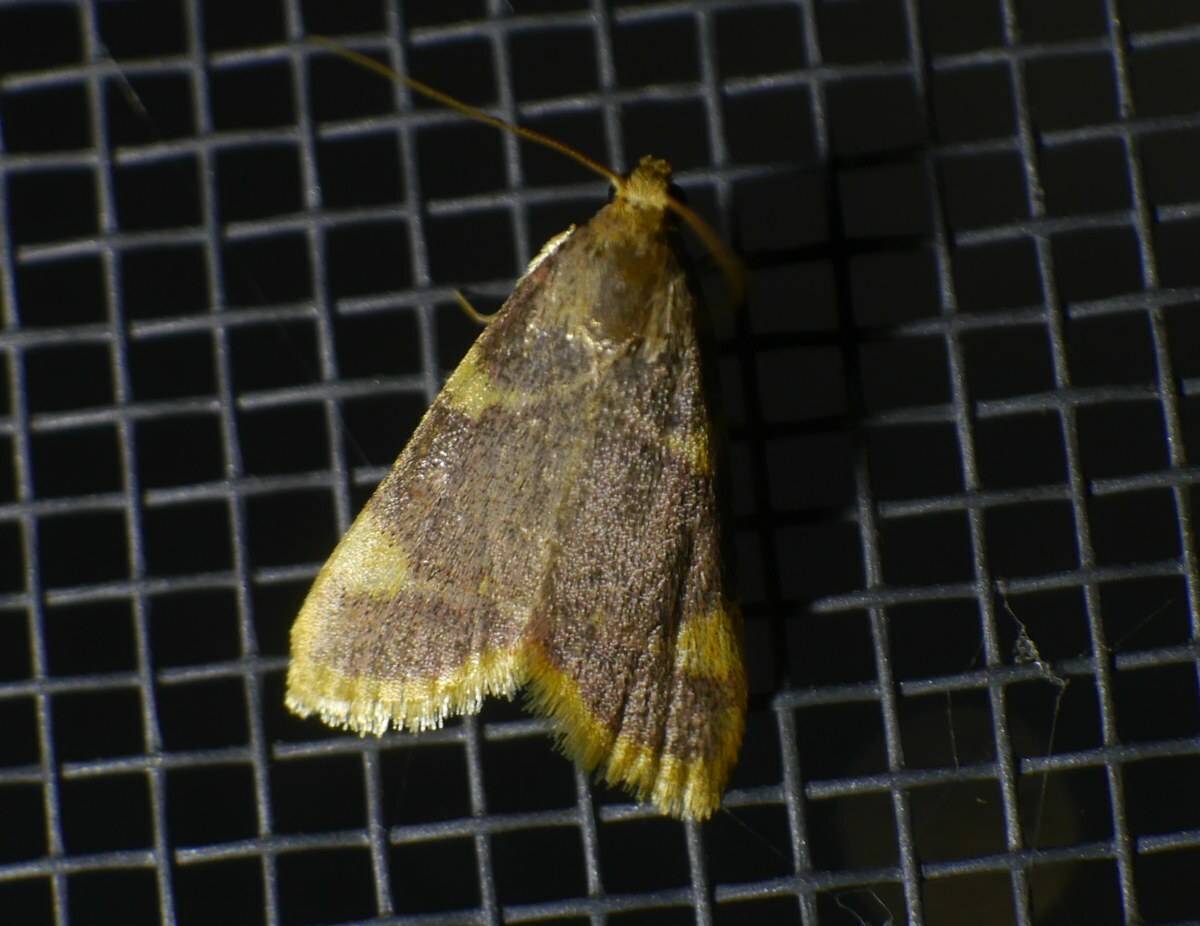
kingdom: Animalia
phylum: Arthropoda
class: Insecta
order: Lepidoptera
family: Pyralidae
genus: Hypsopygia
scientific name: Hypsopygia costalis
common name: Gold triangle
